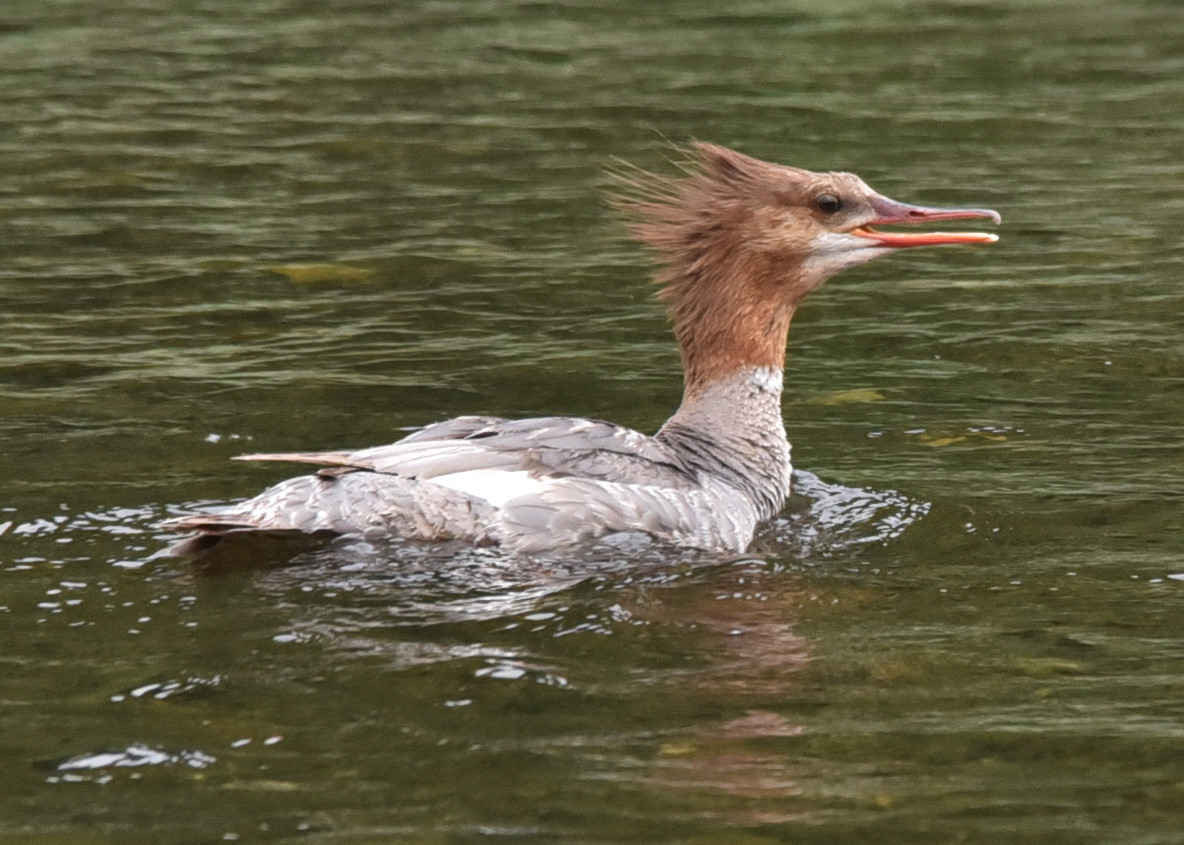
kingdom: Animalia
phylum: Chordata
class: Aves
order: Anseriformes
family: Anatidae
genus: Mergus
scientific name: Mergus merganser
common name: Common merganser
